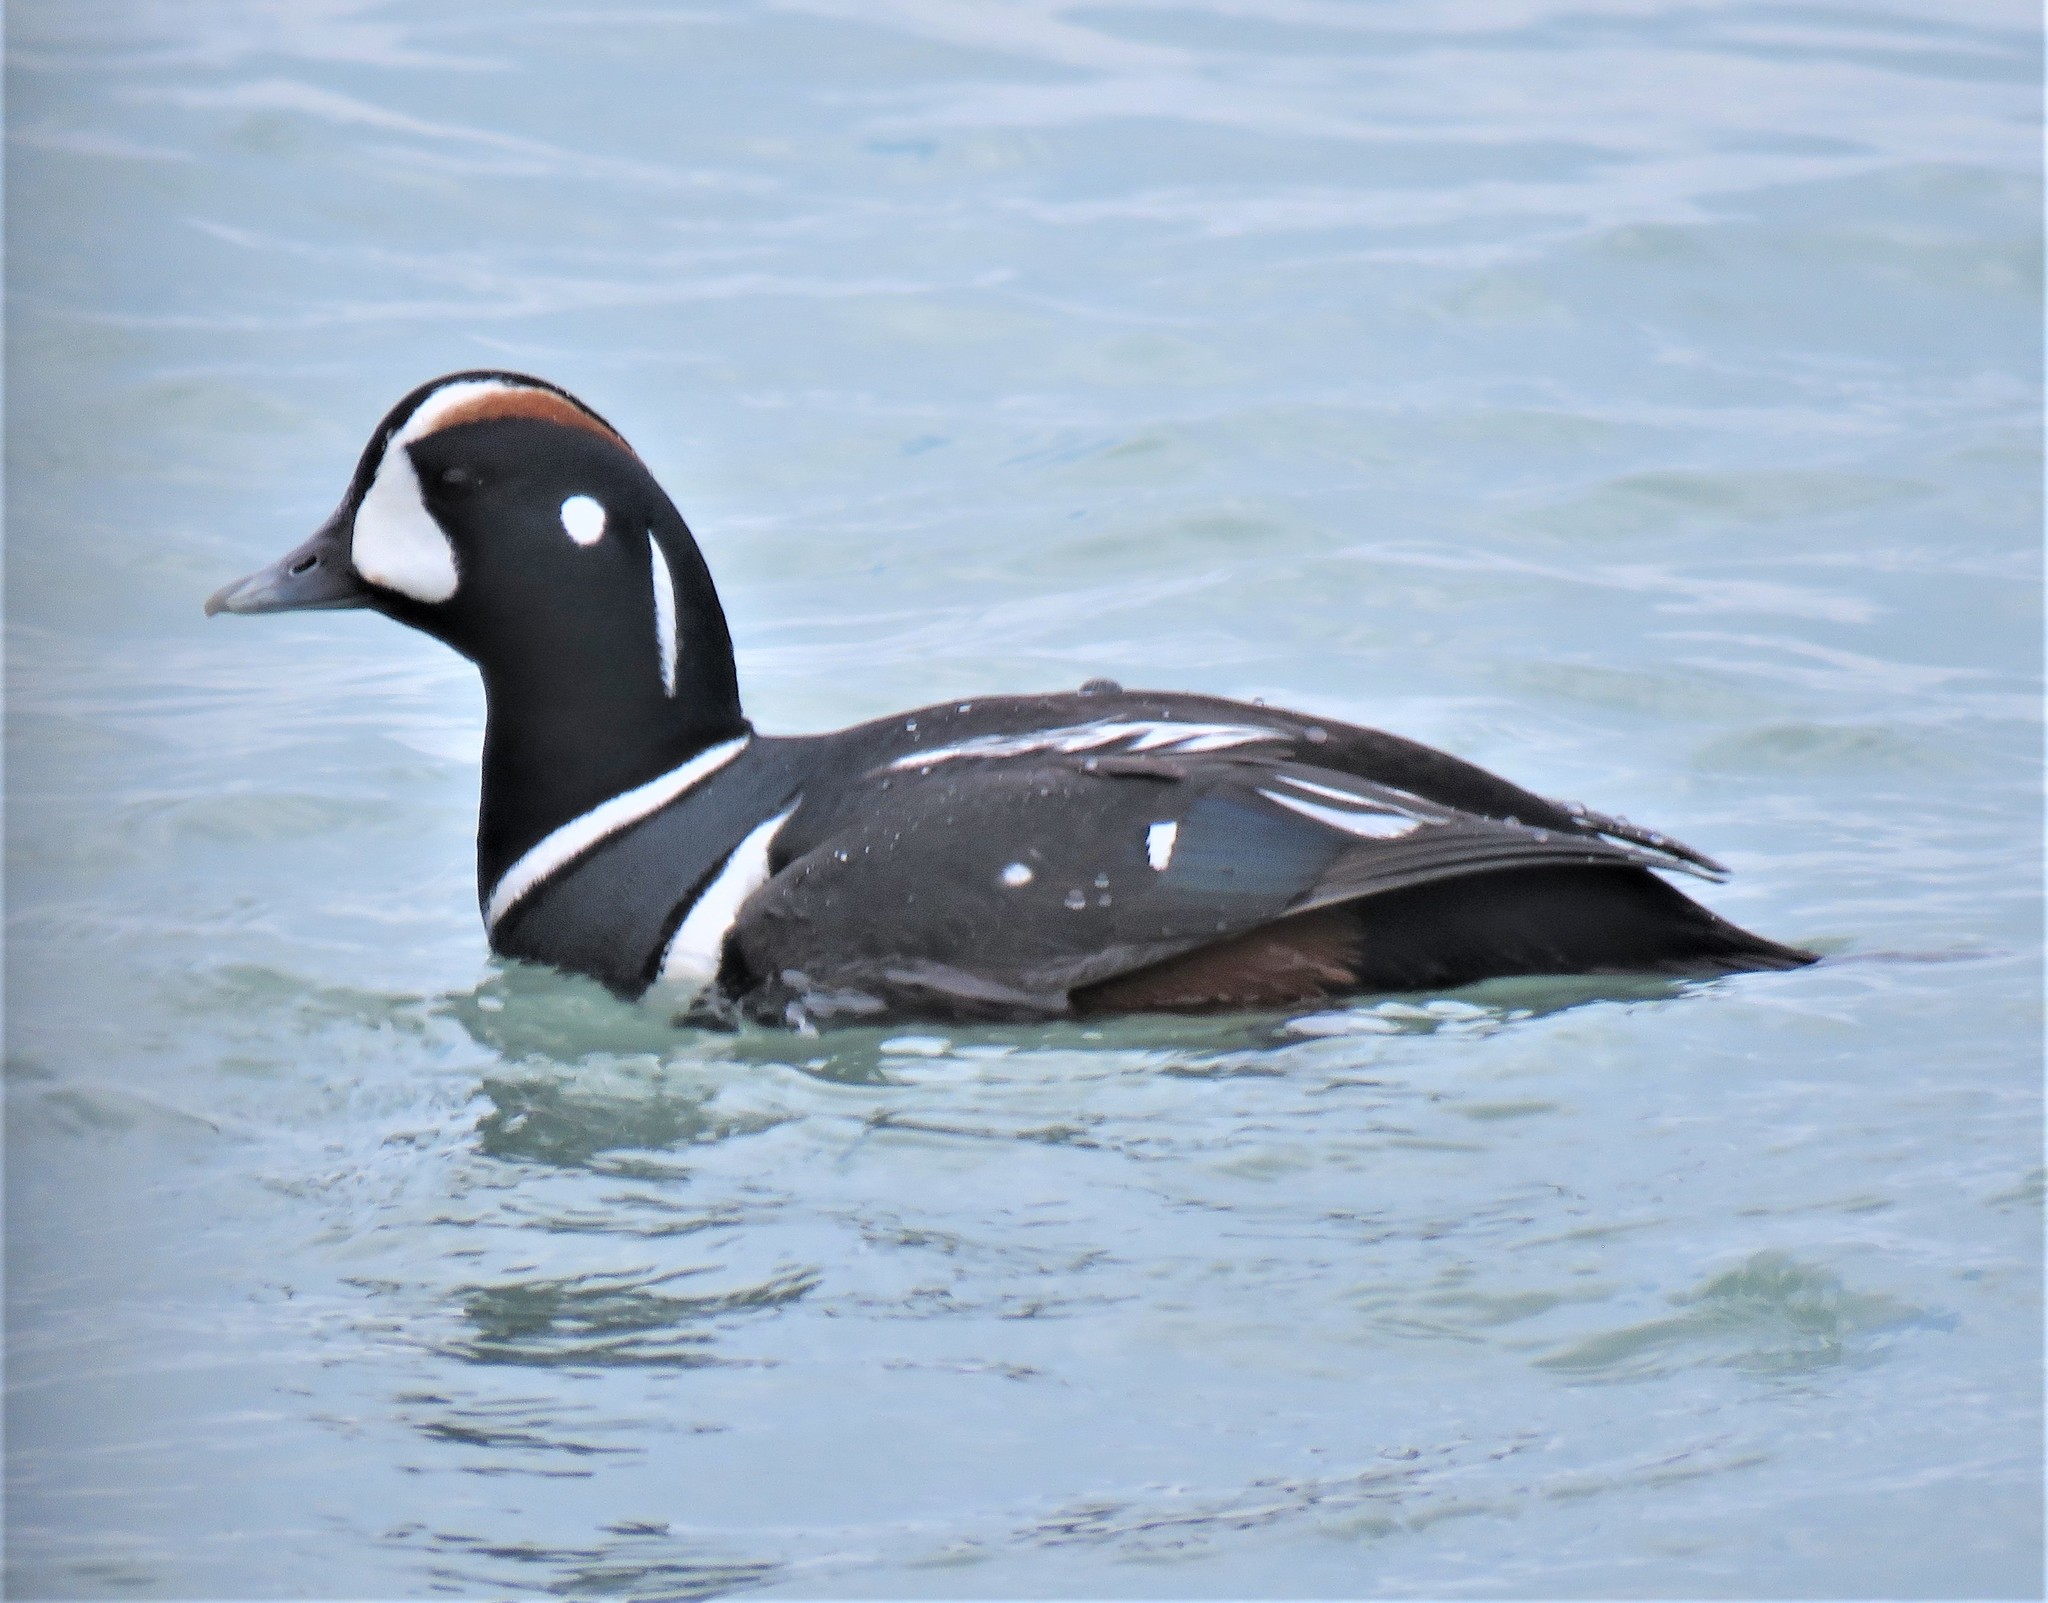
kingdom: Animalia
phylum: Chordata
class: Aves
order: Anseriformes
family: Anatidae
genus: Histrionicus
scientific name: Histrionicus histrionicus
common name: Harlequin duck
